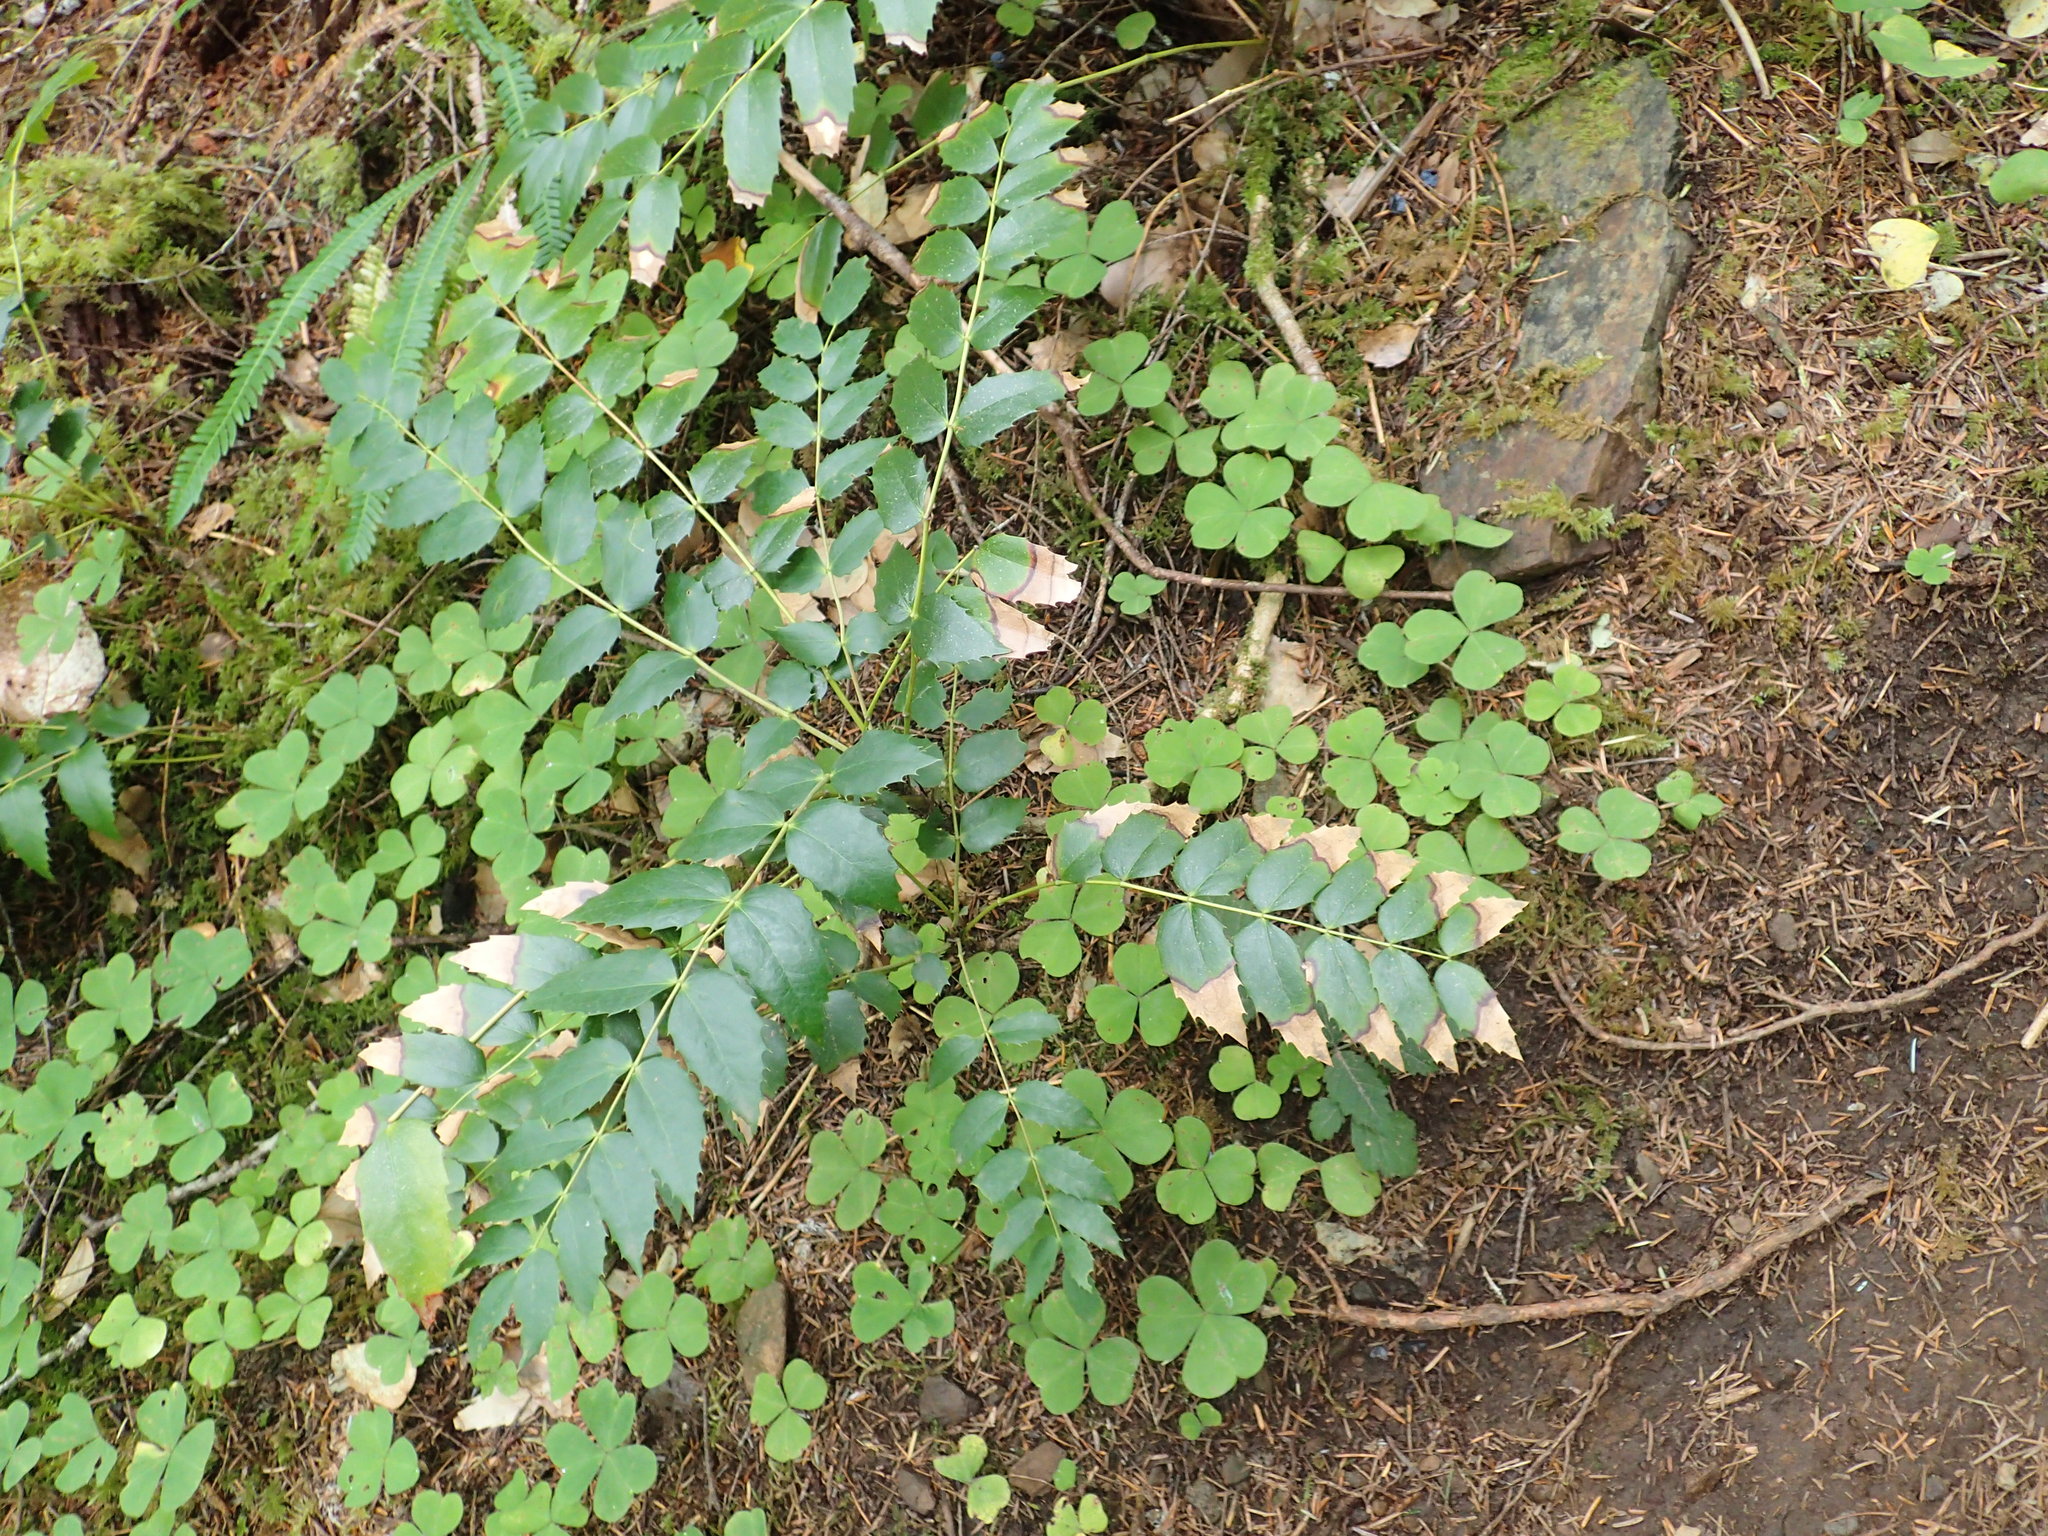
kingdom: Plantae
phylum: Tracheophyta
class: Magnoliopsida
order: Ranunculales
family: Berberidaceae
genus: Mahonia
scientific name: Mahonia nervosa
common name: Cascade oregon-grape
